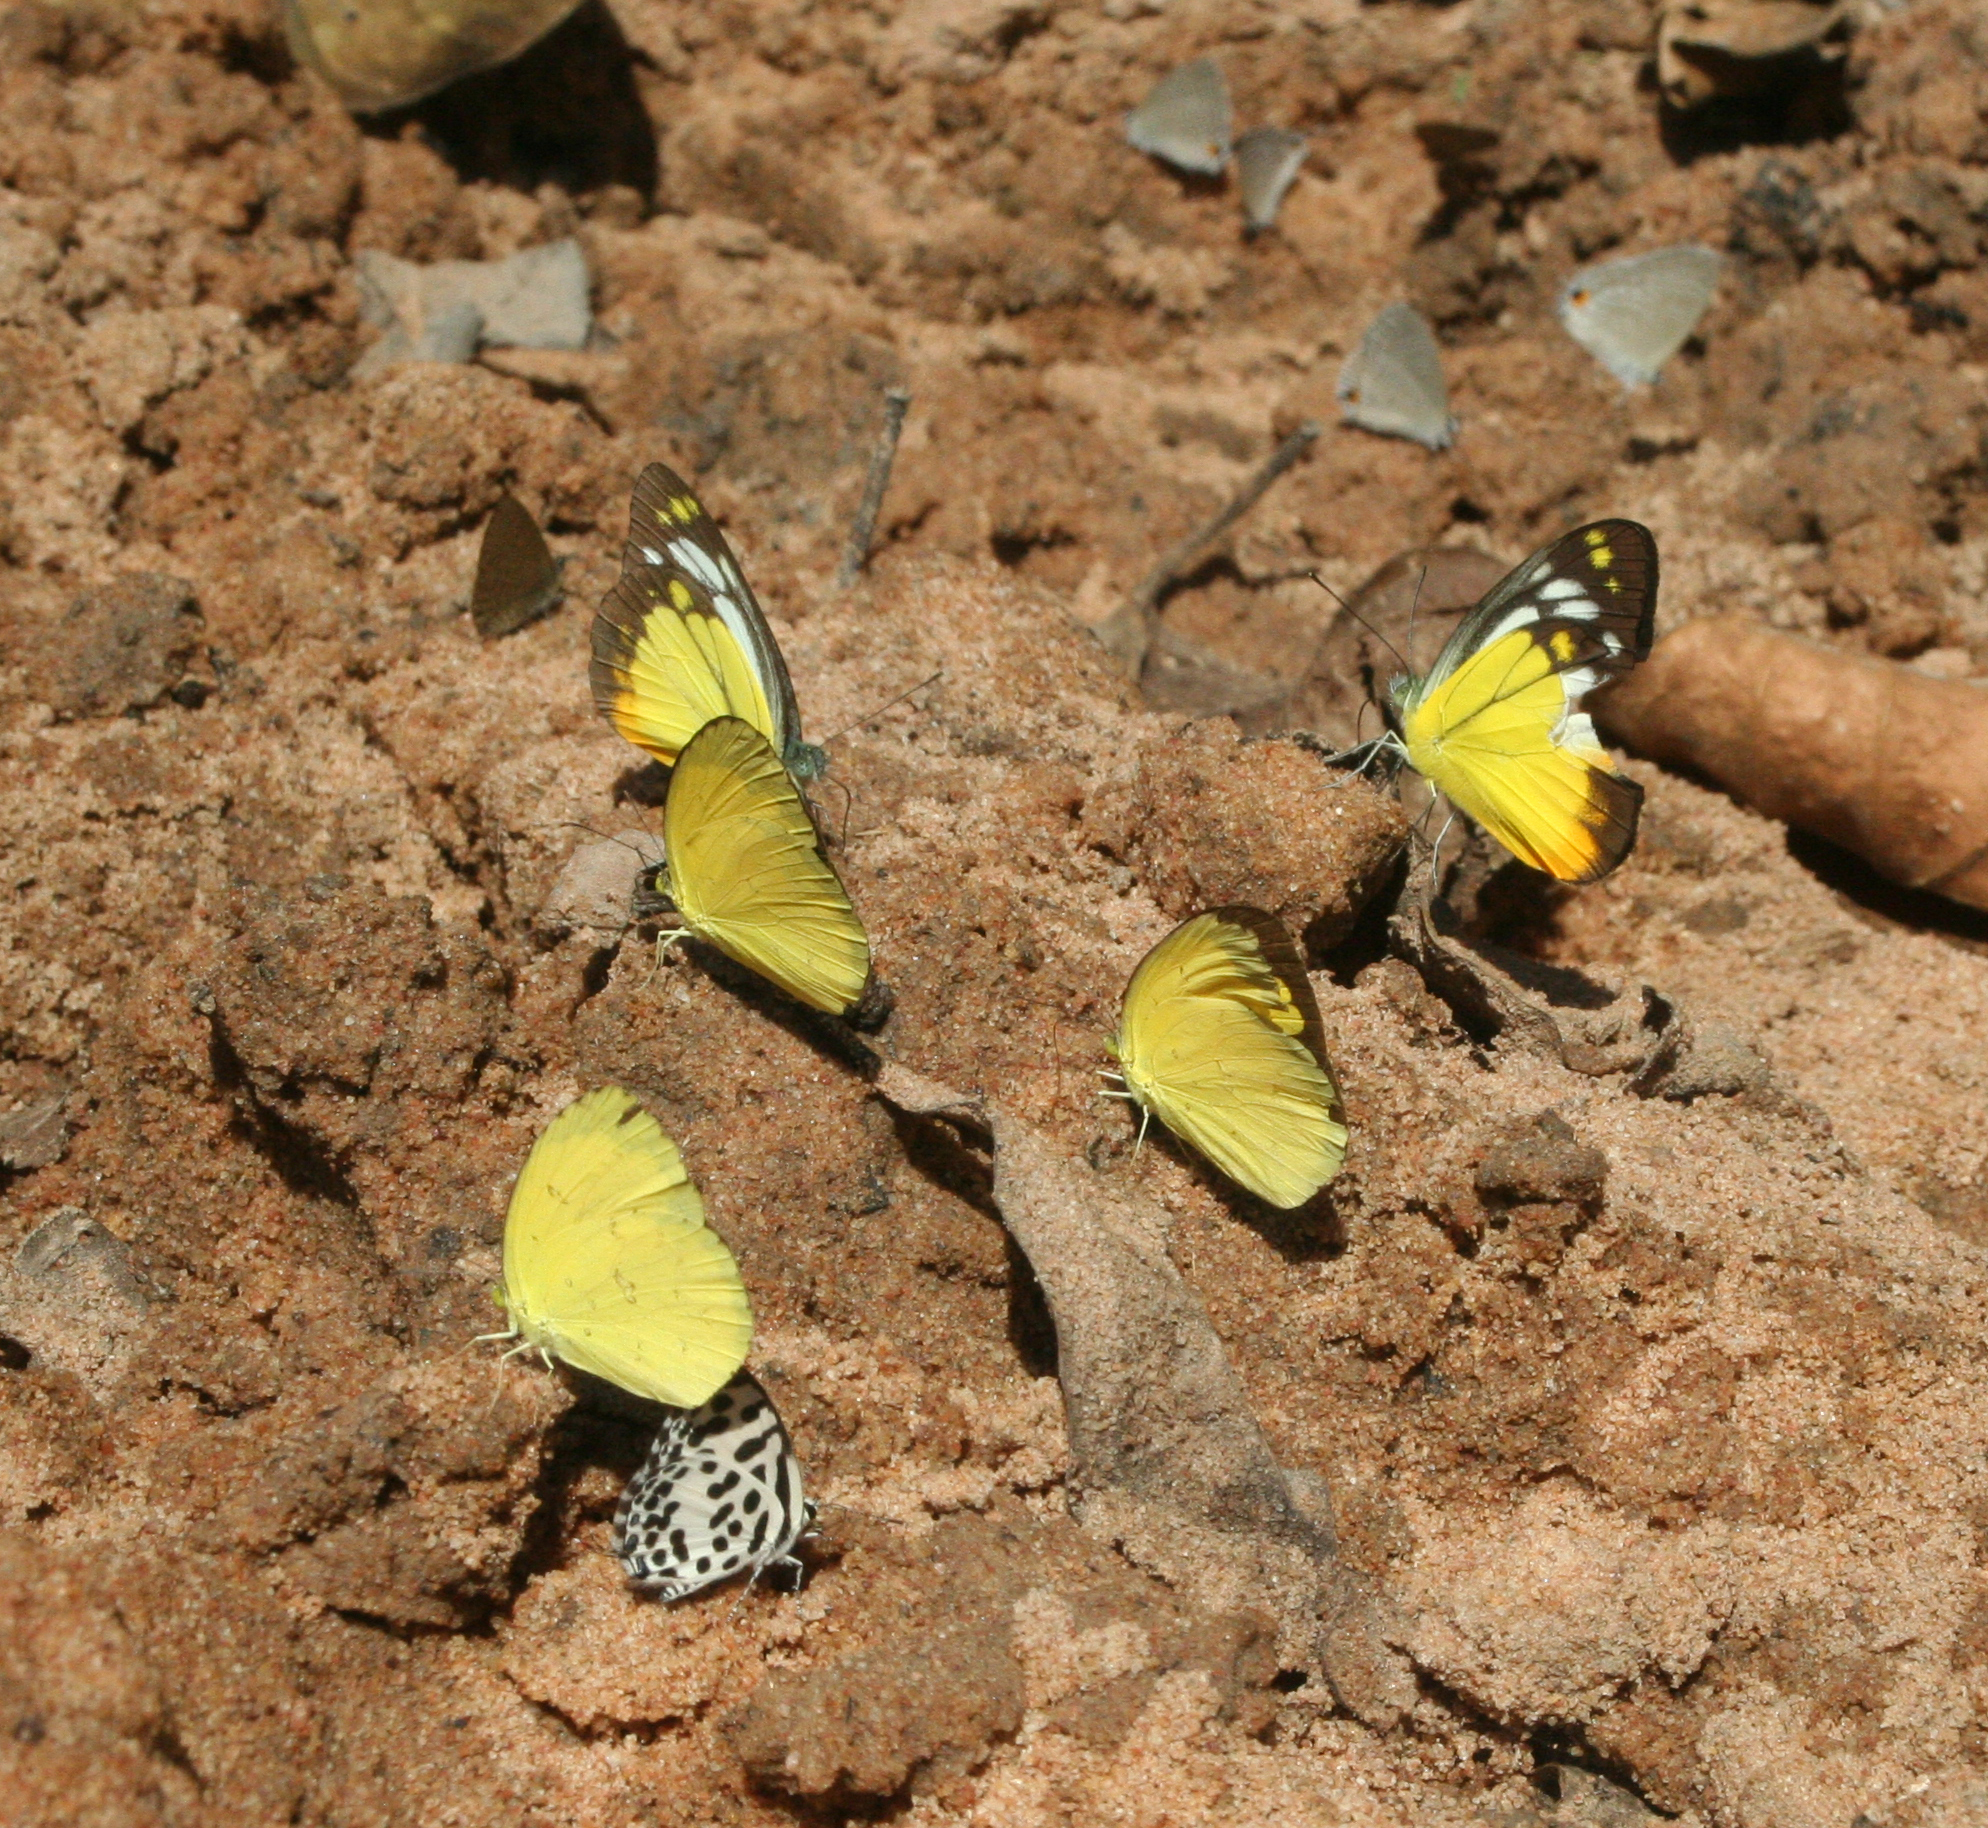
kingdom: Animalia
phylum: Arthropoda
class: Insecta
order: Lepidoptera
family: Pieridae
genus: Eurema
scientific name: Eurema hecabe
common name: Pale grass yellow
